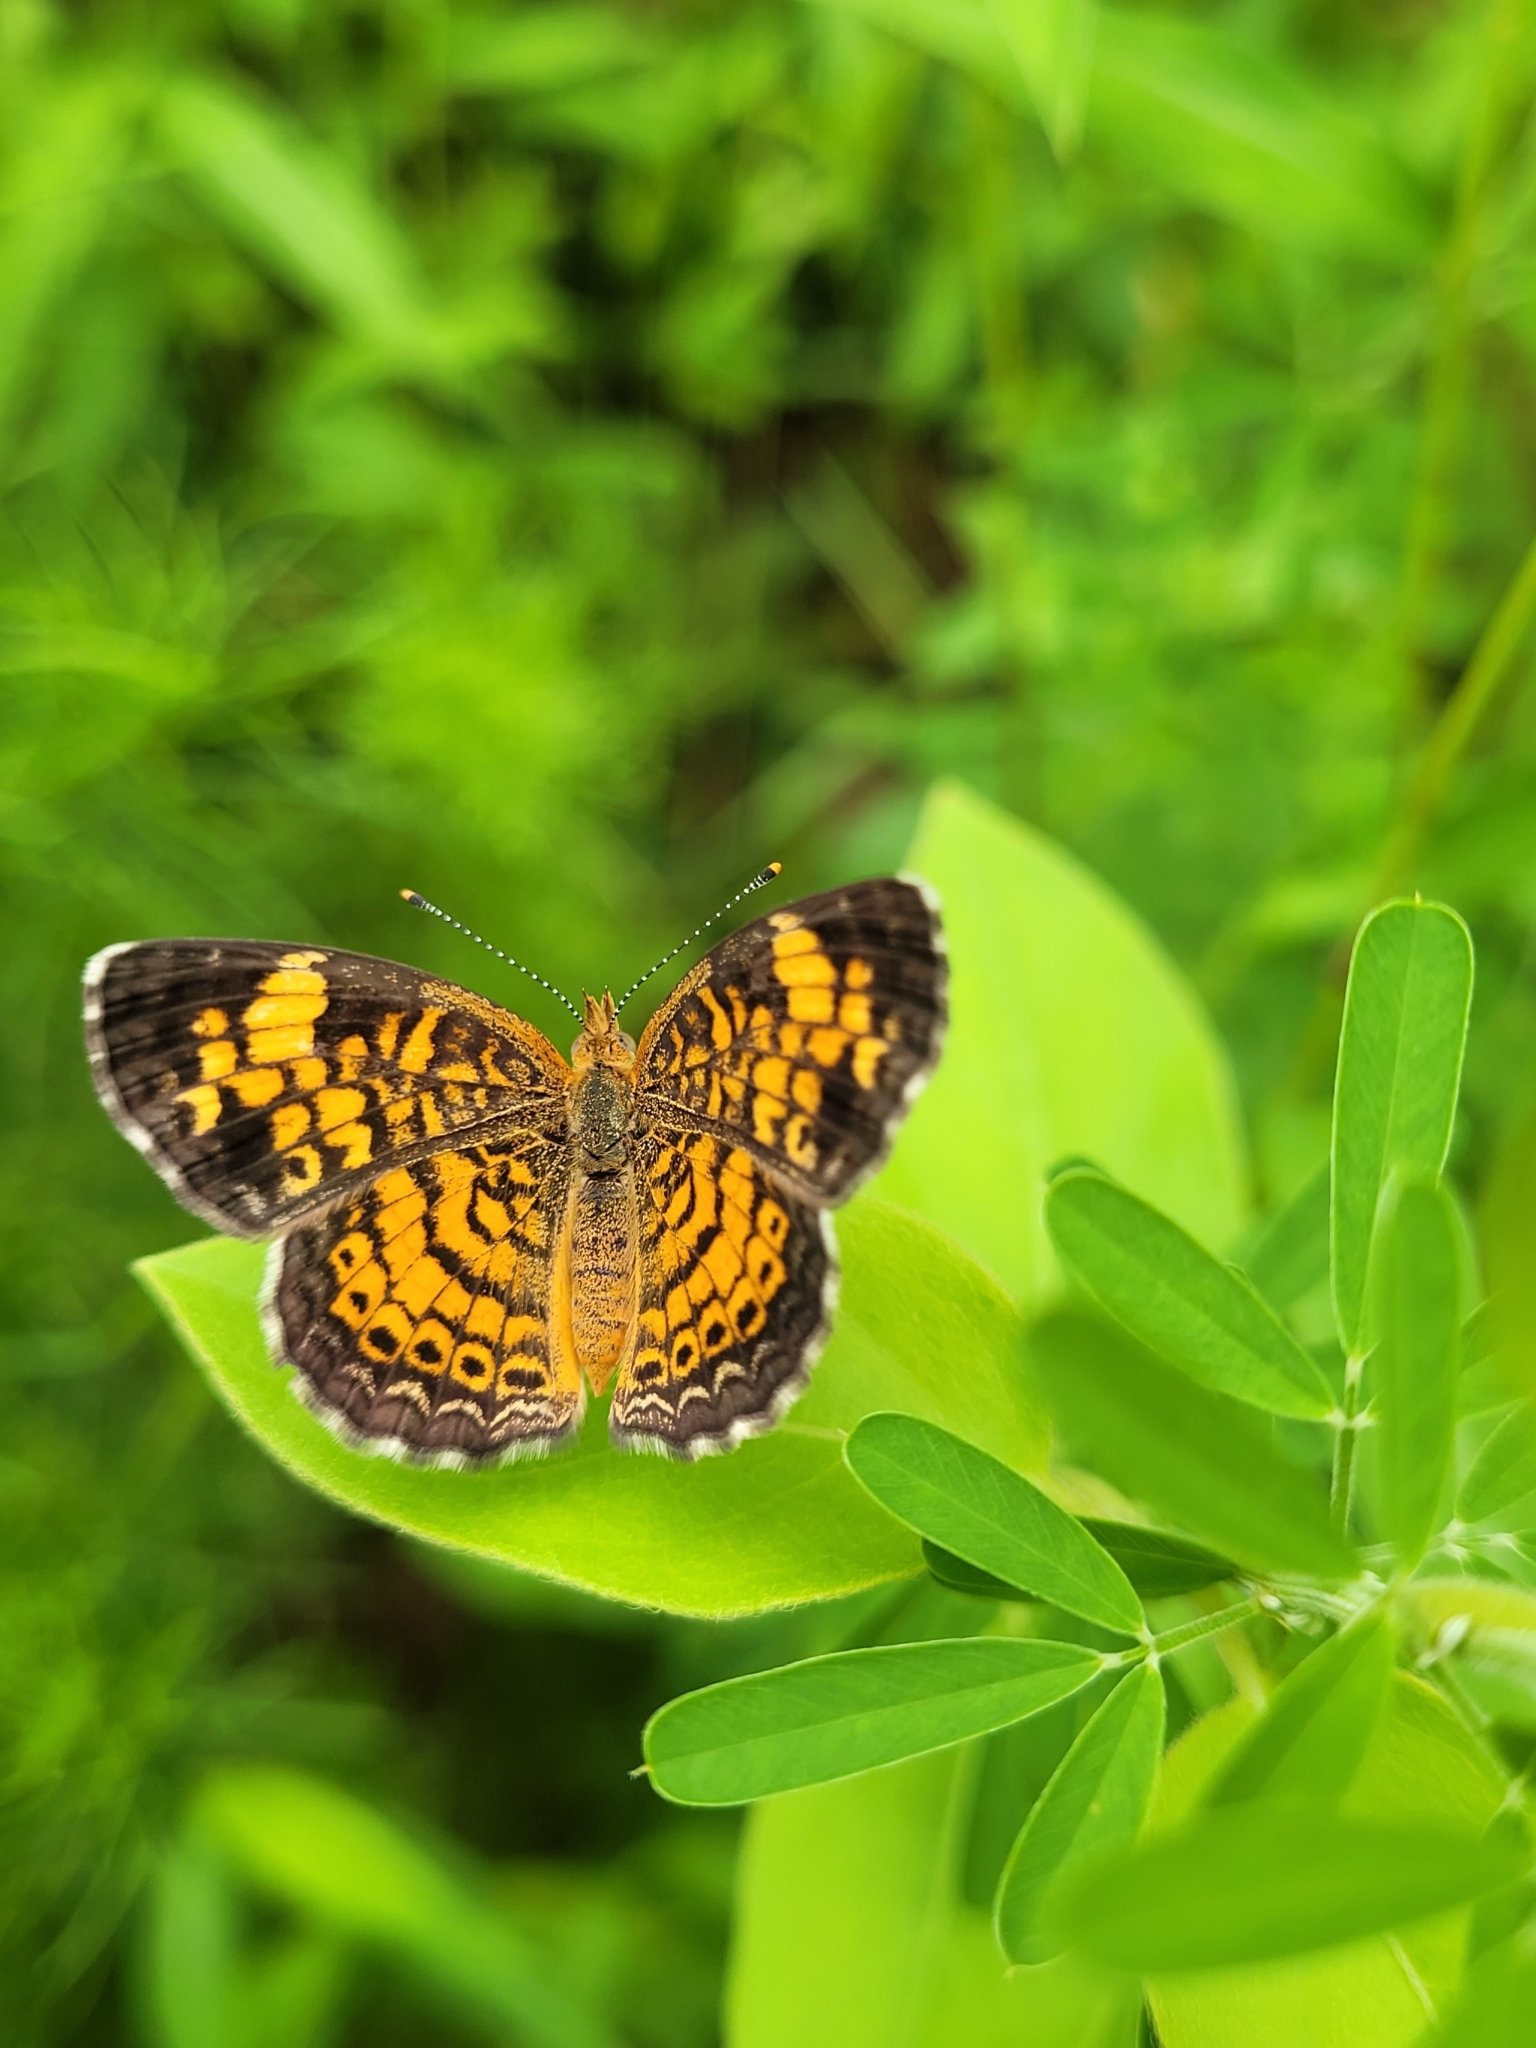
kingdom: Animalia
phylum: Arthropoda
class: Insecta
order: Lepidoptera
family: Nymphalidae
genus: Phyciodes
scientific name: Phyciodes tharos
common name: Pearl crescent
